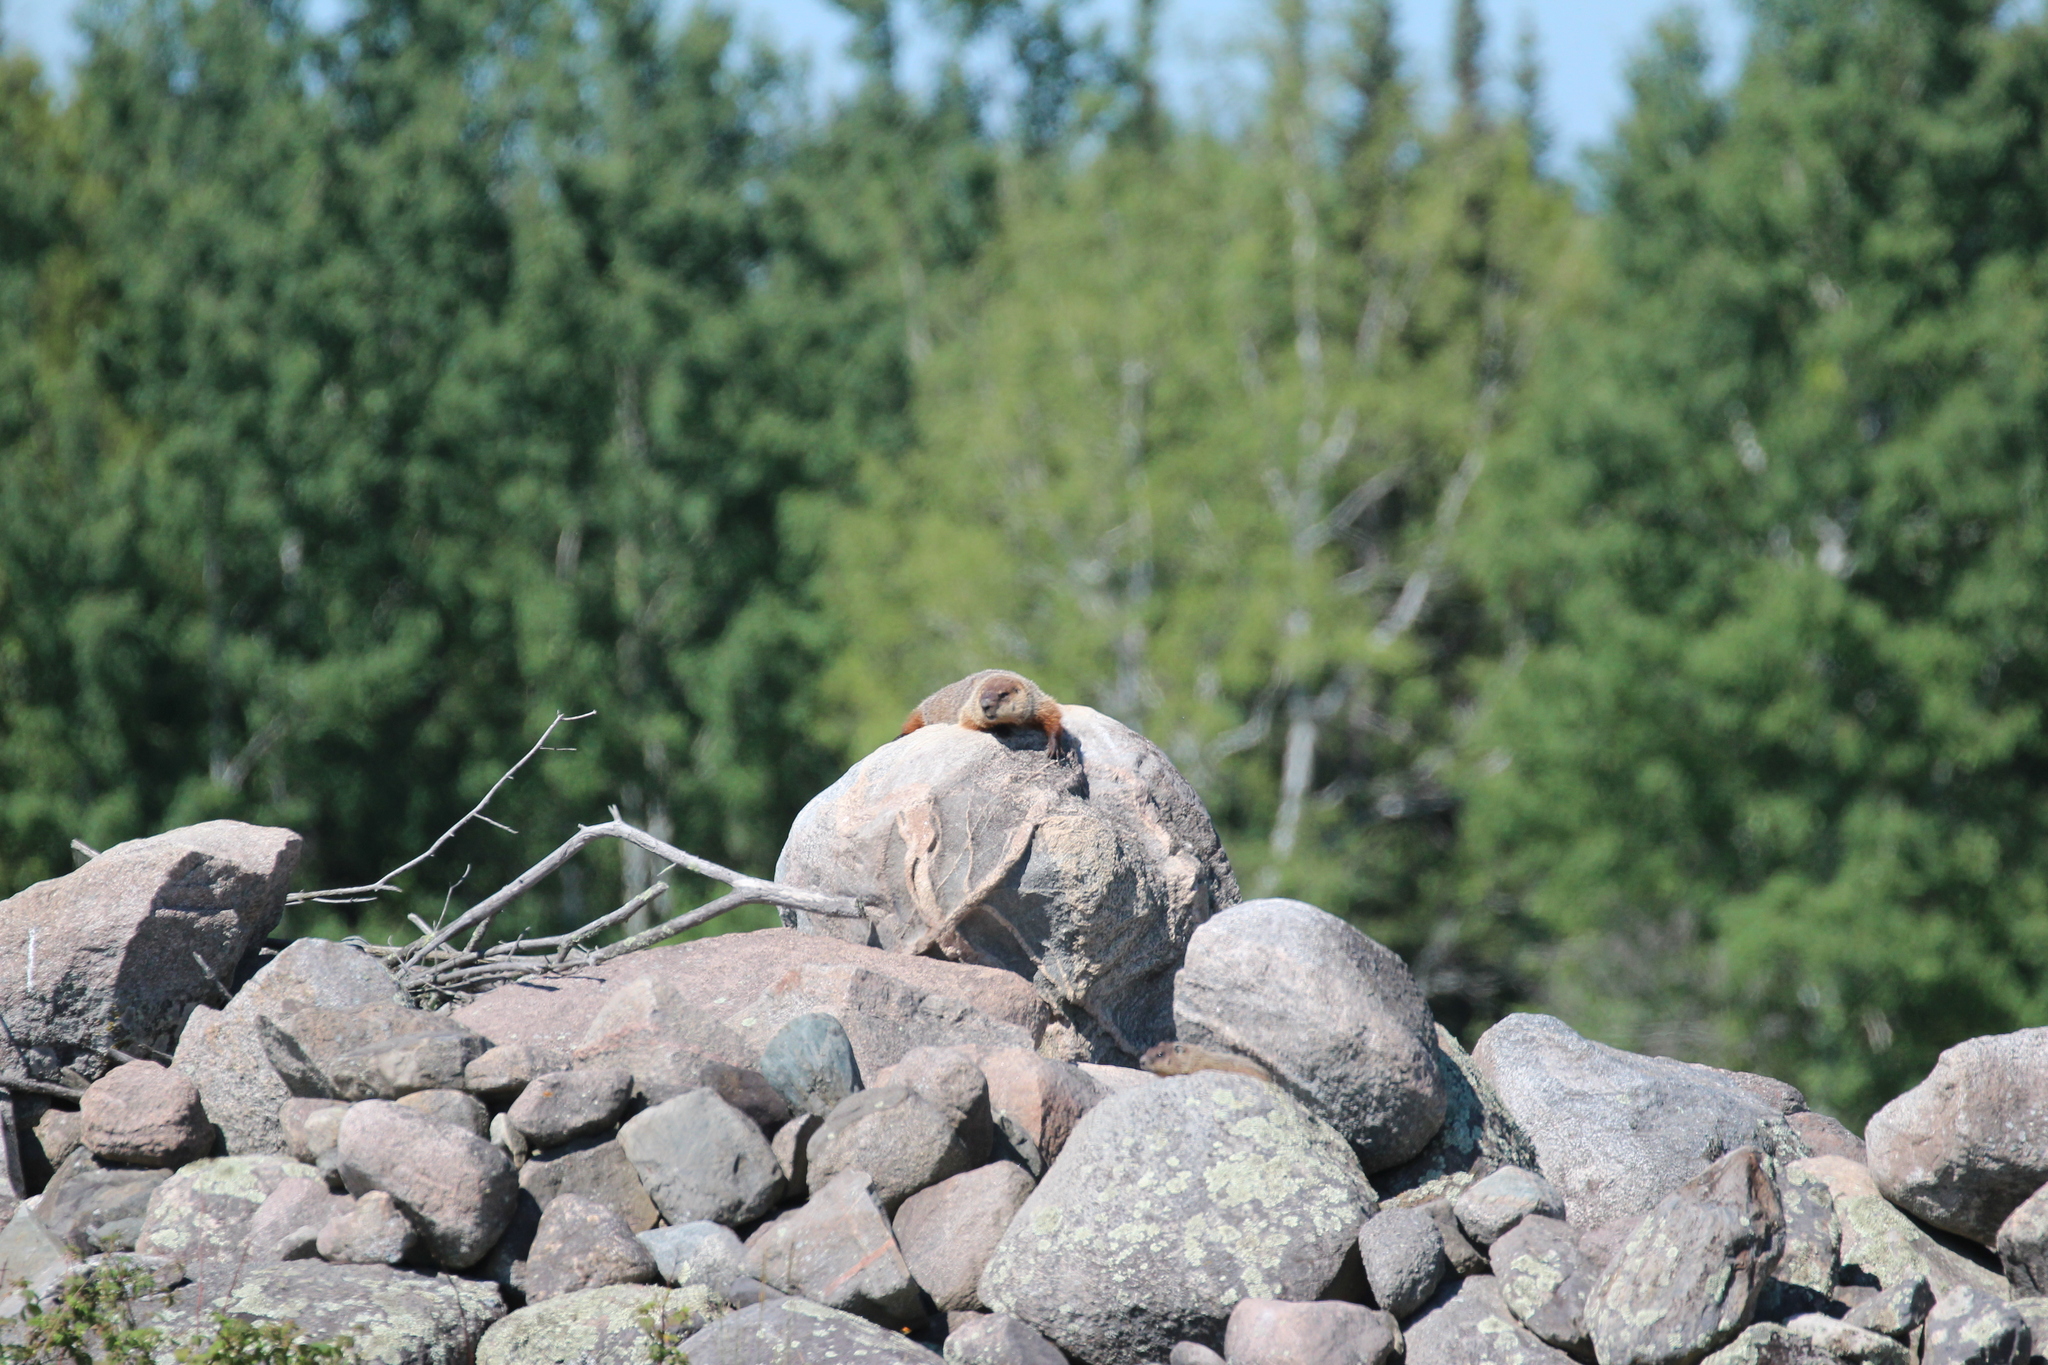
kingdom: Animalia
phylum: Chordata
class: Mammalia
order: Rodentia
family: Sciuridae
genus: Marmota
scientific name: Marmota monax
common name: Groundhog
